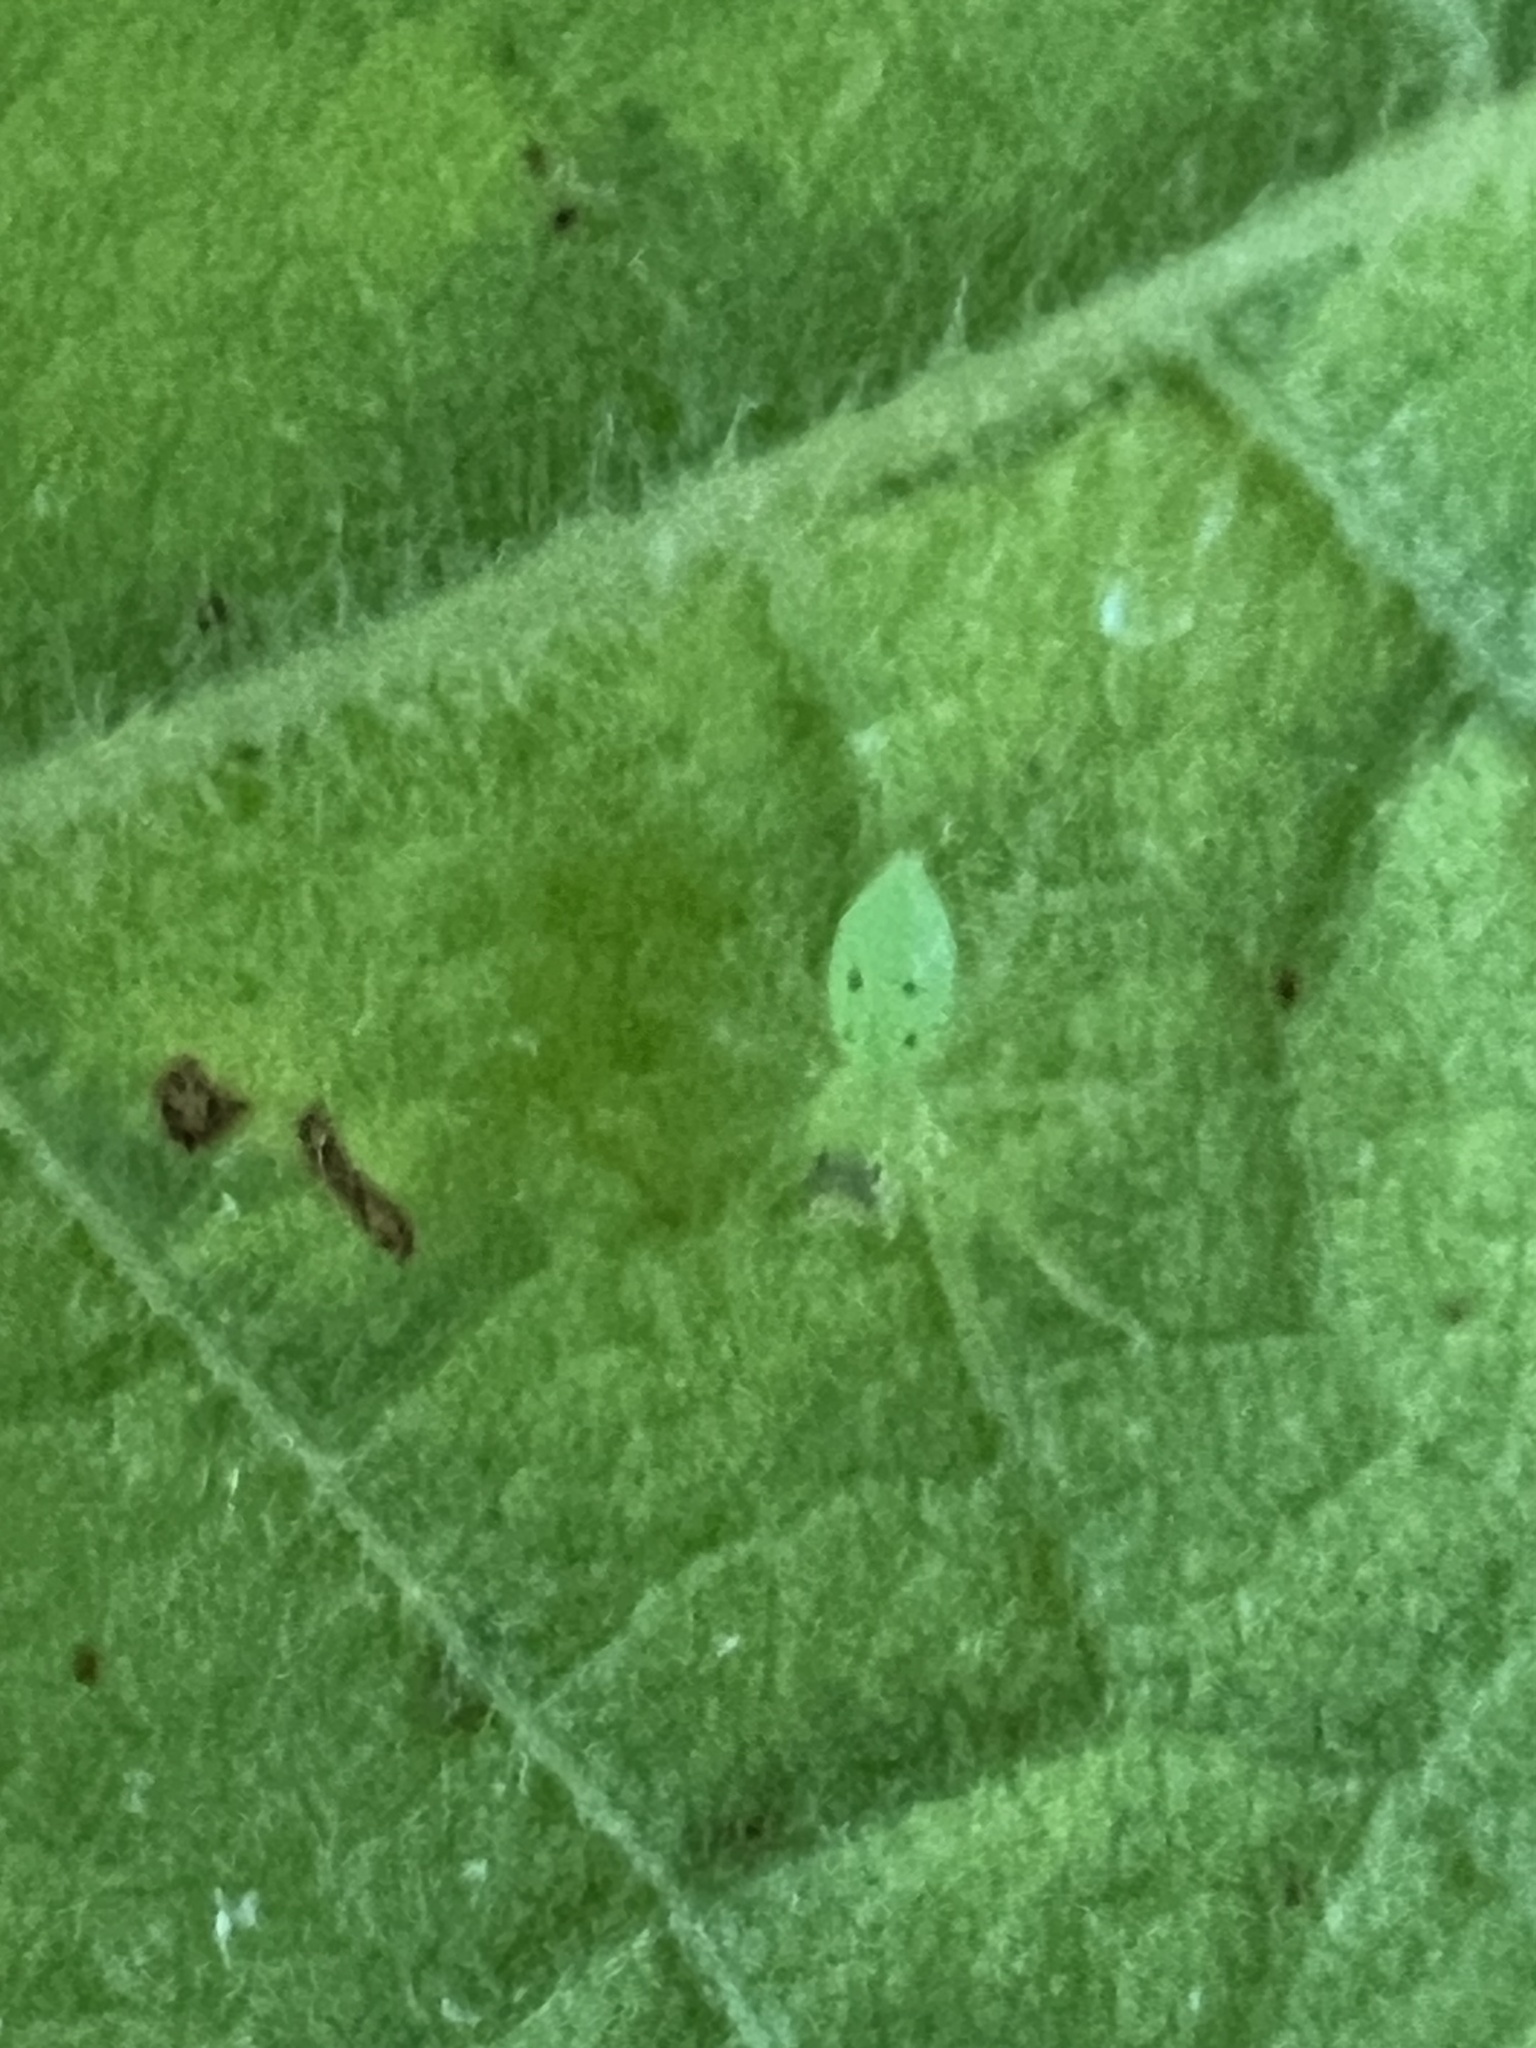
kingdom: Animalia
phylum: Arthropoda
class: Arachnida
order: Araneae
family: Salticidae
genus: Lyssomanes
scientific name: Lyssomanes viridis
